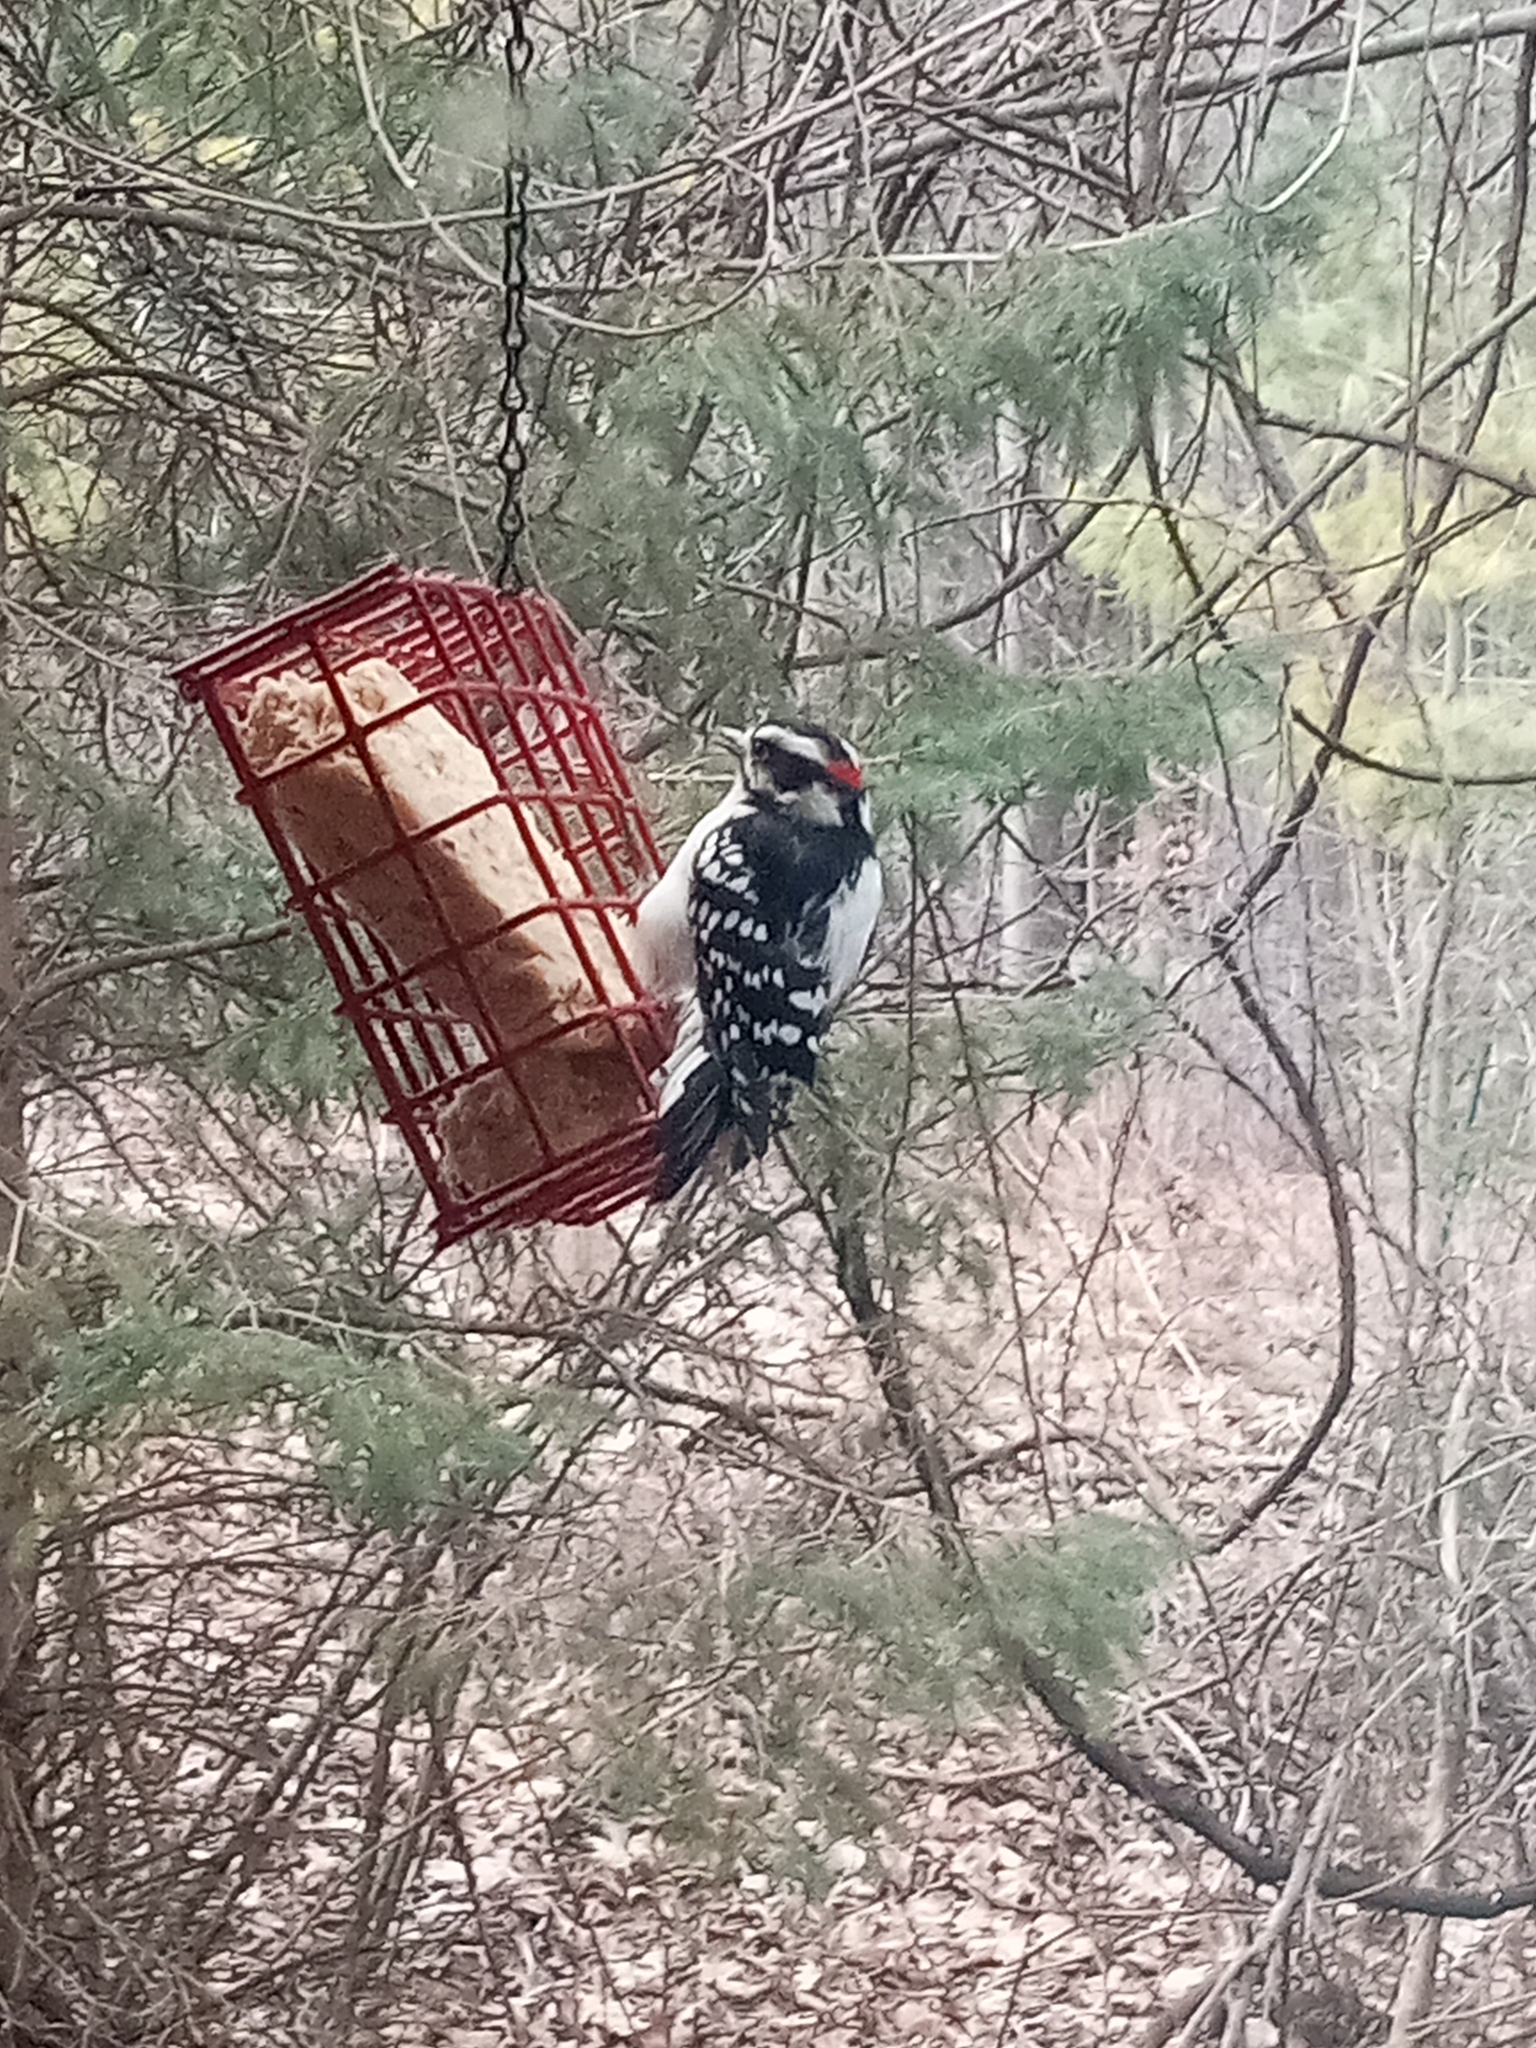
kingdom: Animalia
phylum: Chordata
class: Aves
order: Piciformes
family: Picidae
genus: Dryobates
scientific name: Dryobates pubescens
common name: Downy woodpecker
